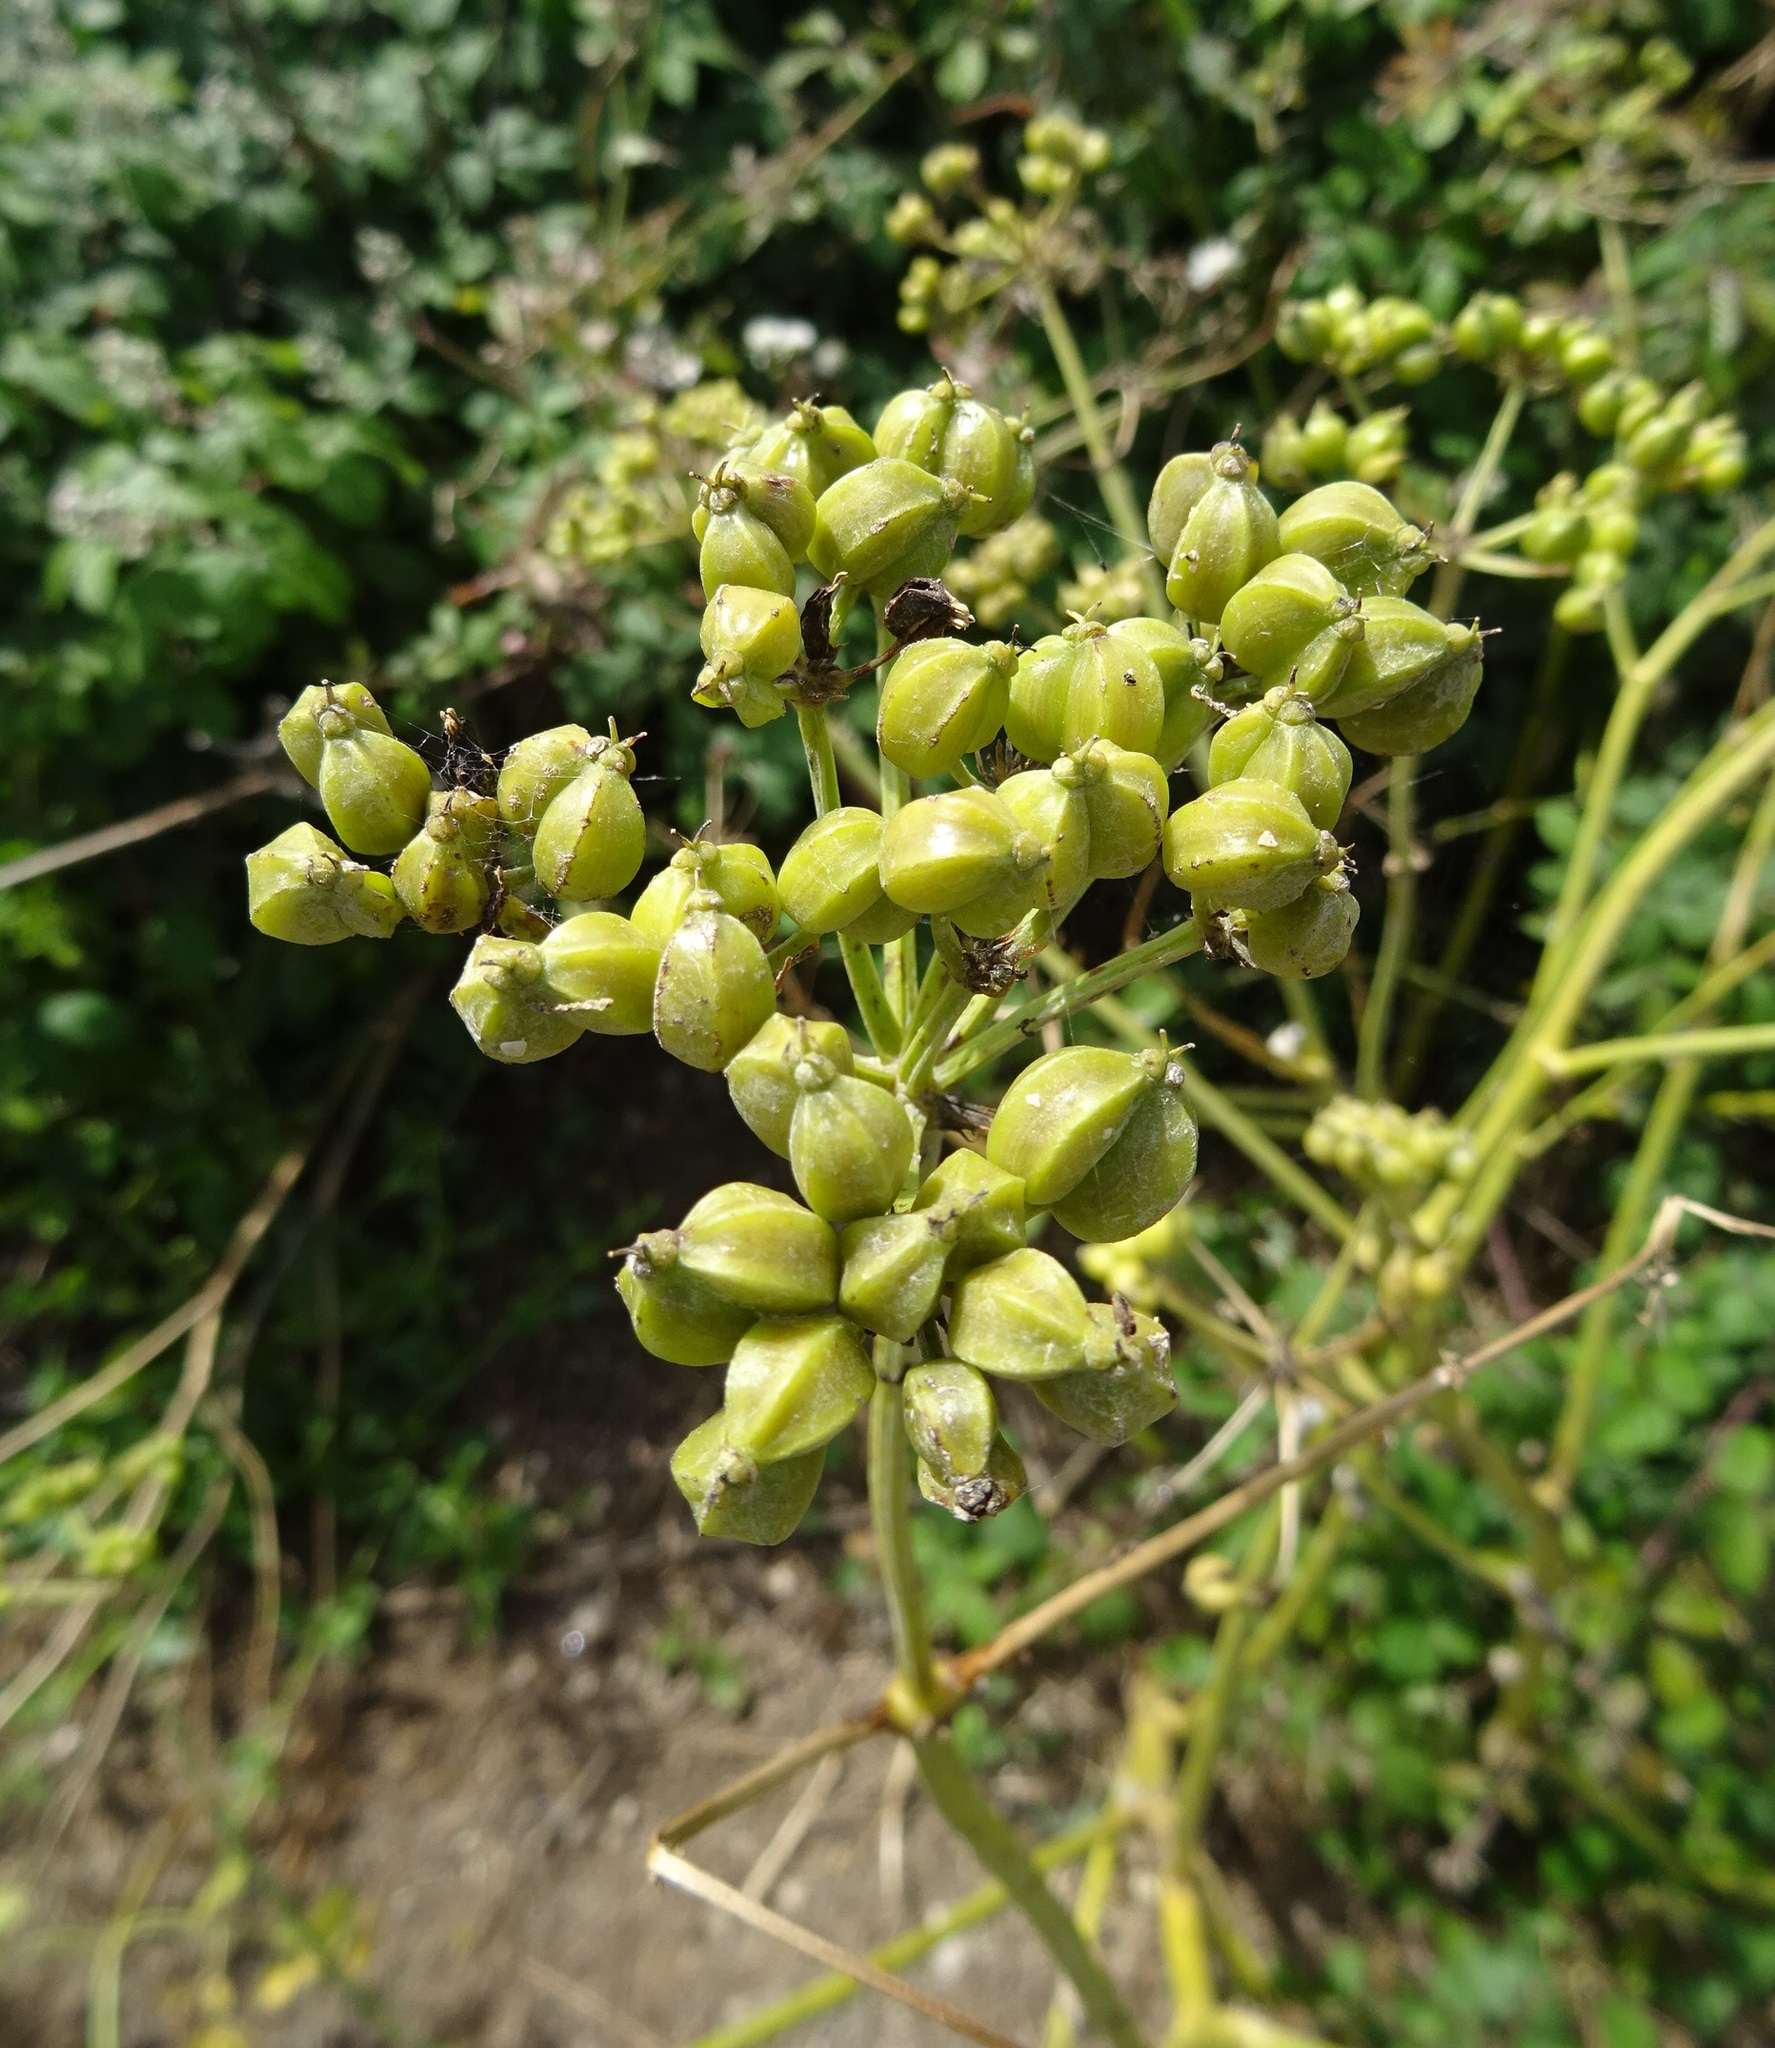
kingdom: Plantae
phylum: Tracheophyta
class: Magnoliopsida
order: Apiales
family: Apiaceae
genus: Smyrnium
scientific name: Smyrnium olusatrum
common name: Alexanders
